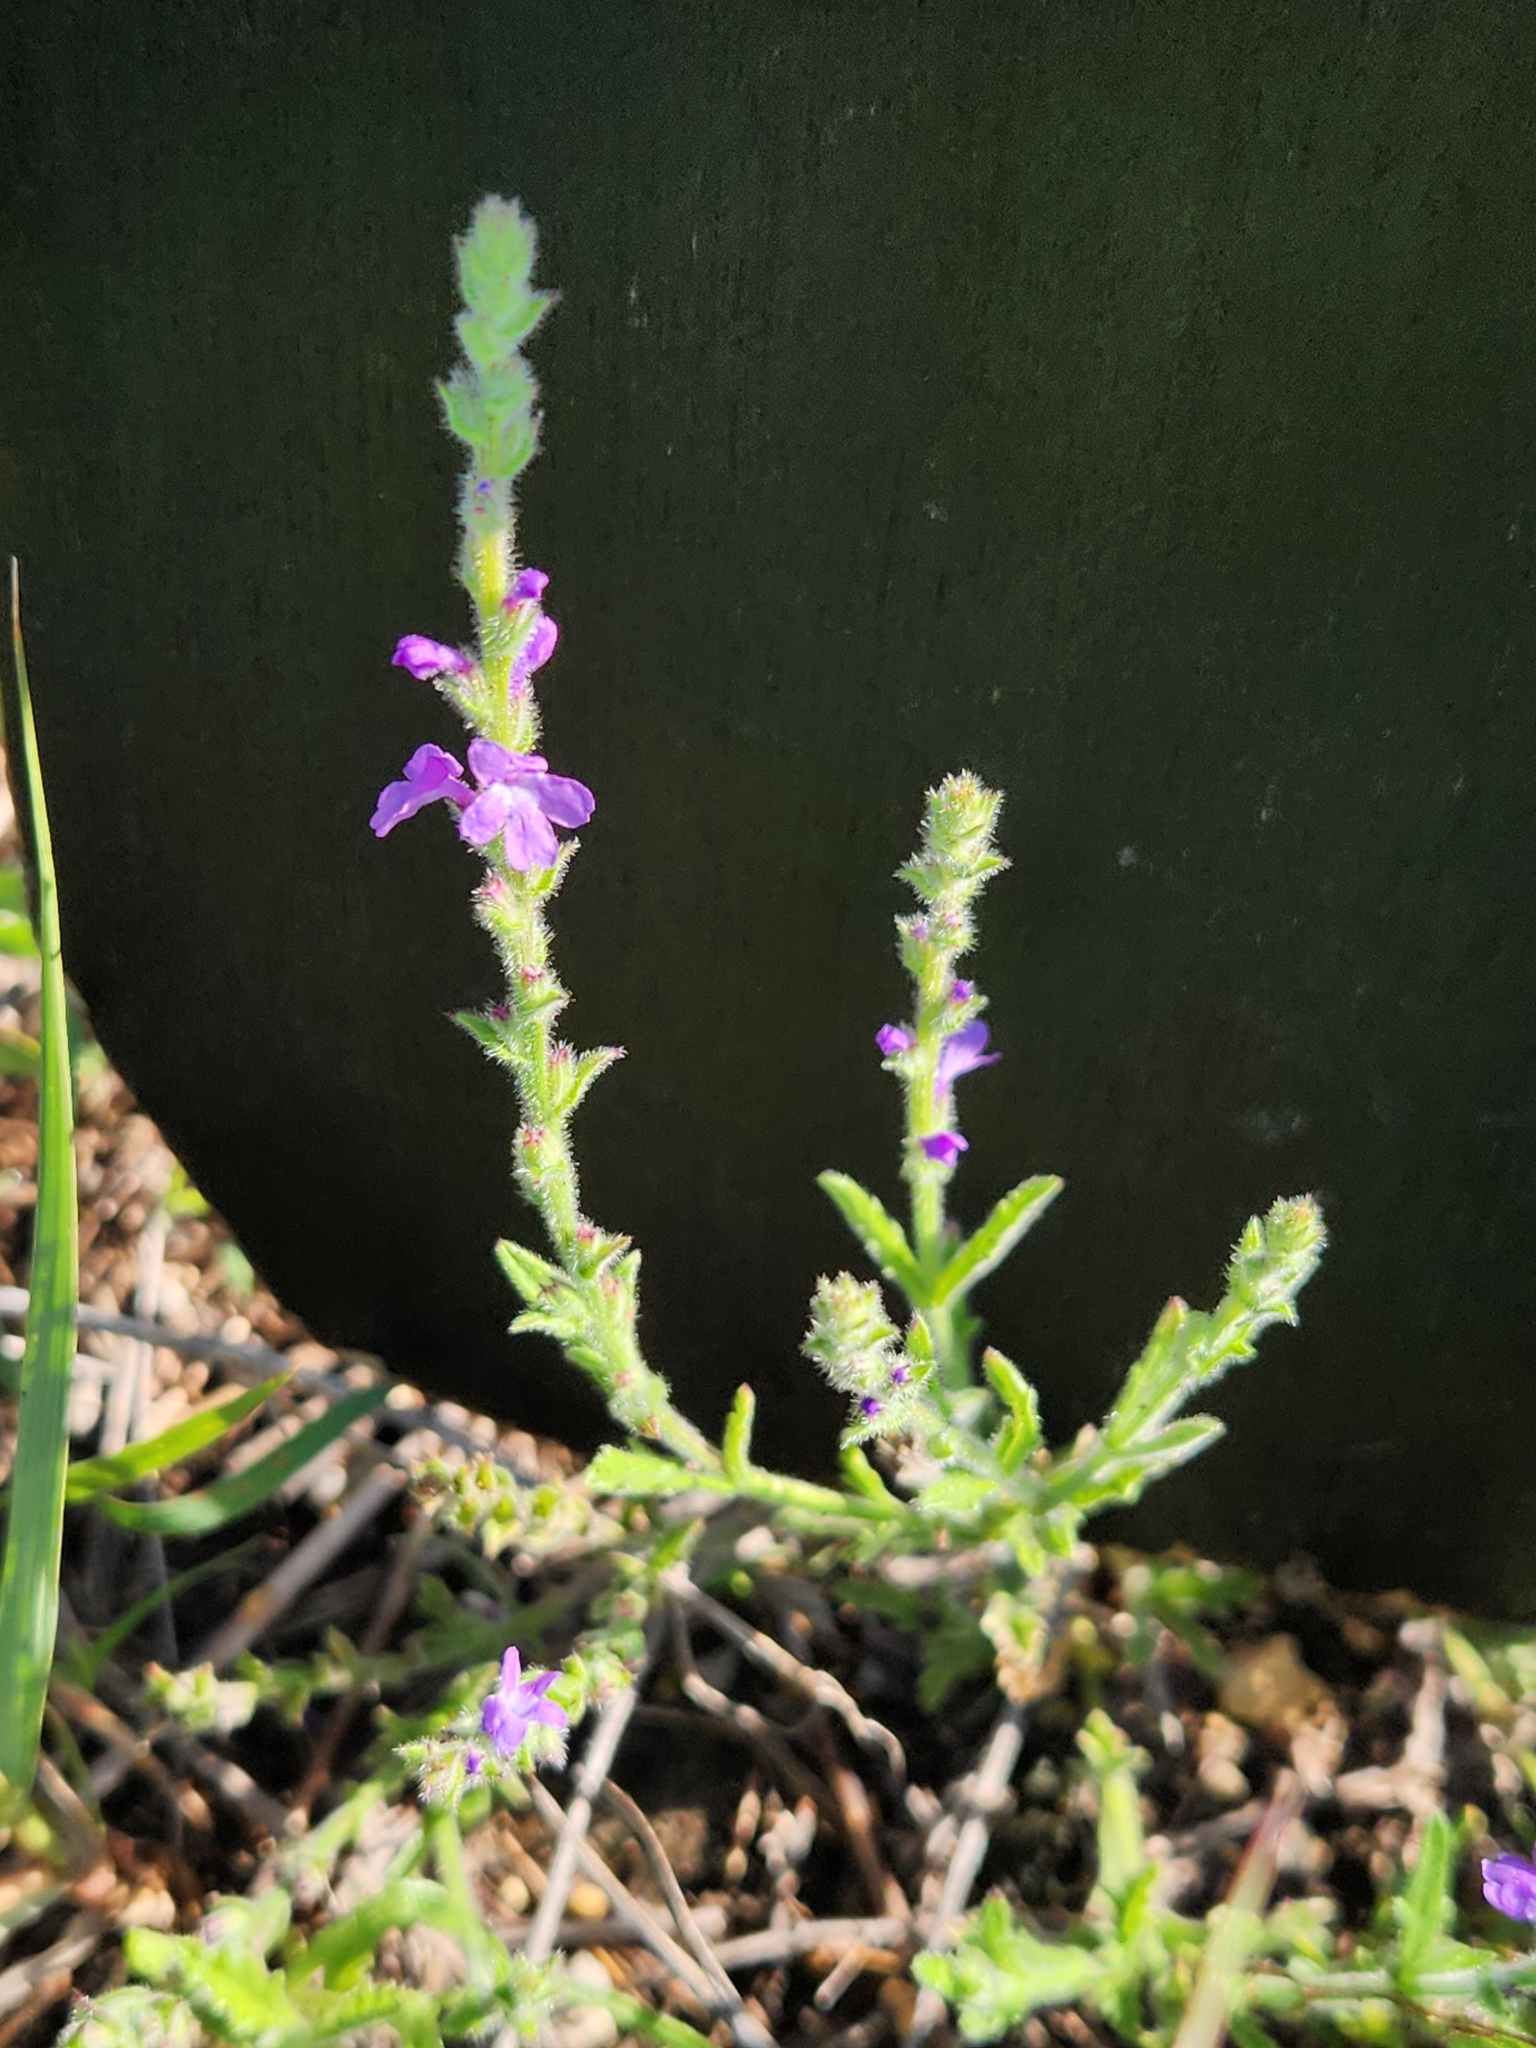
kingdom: Plantae
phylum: Tracheophyta
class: Magnoliopsida
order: Lamiales
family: Verbenaceae
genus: Verbena
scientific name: Verbena canescens
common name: Gray vervain
